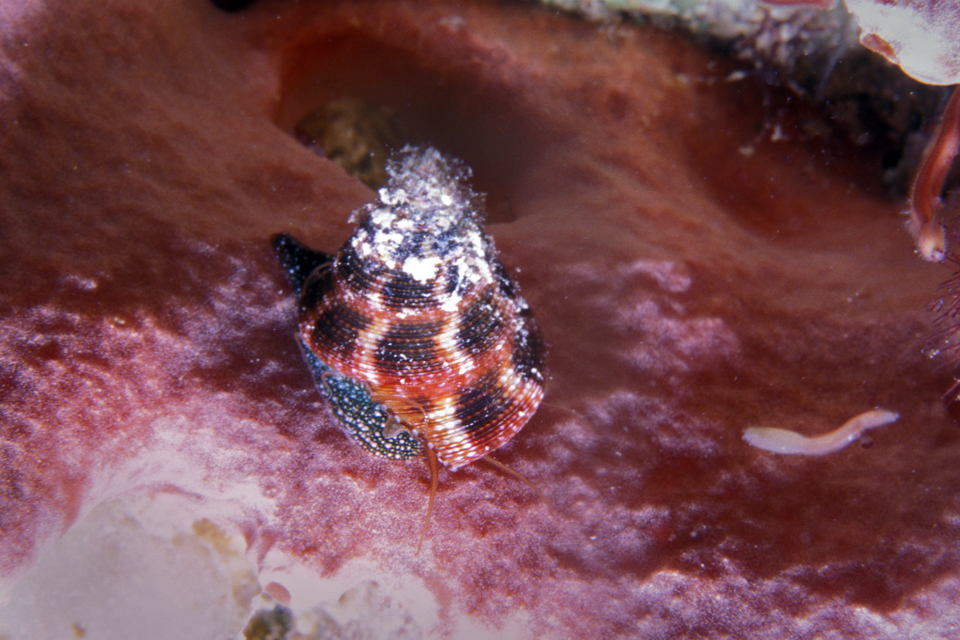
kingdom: Animalia
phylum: Mollusca
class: Gastropoda
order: Trochida
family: Calliostomatidae
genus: Calliostoma
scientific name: Calliostoma jujubinum
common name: Jujube topsnail
